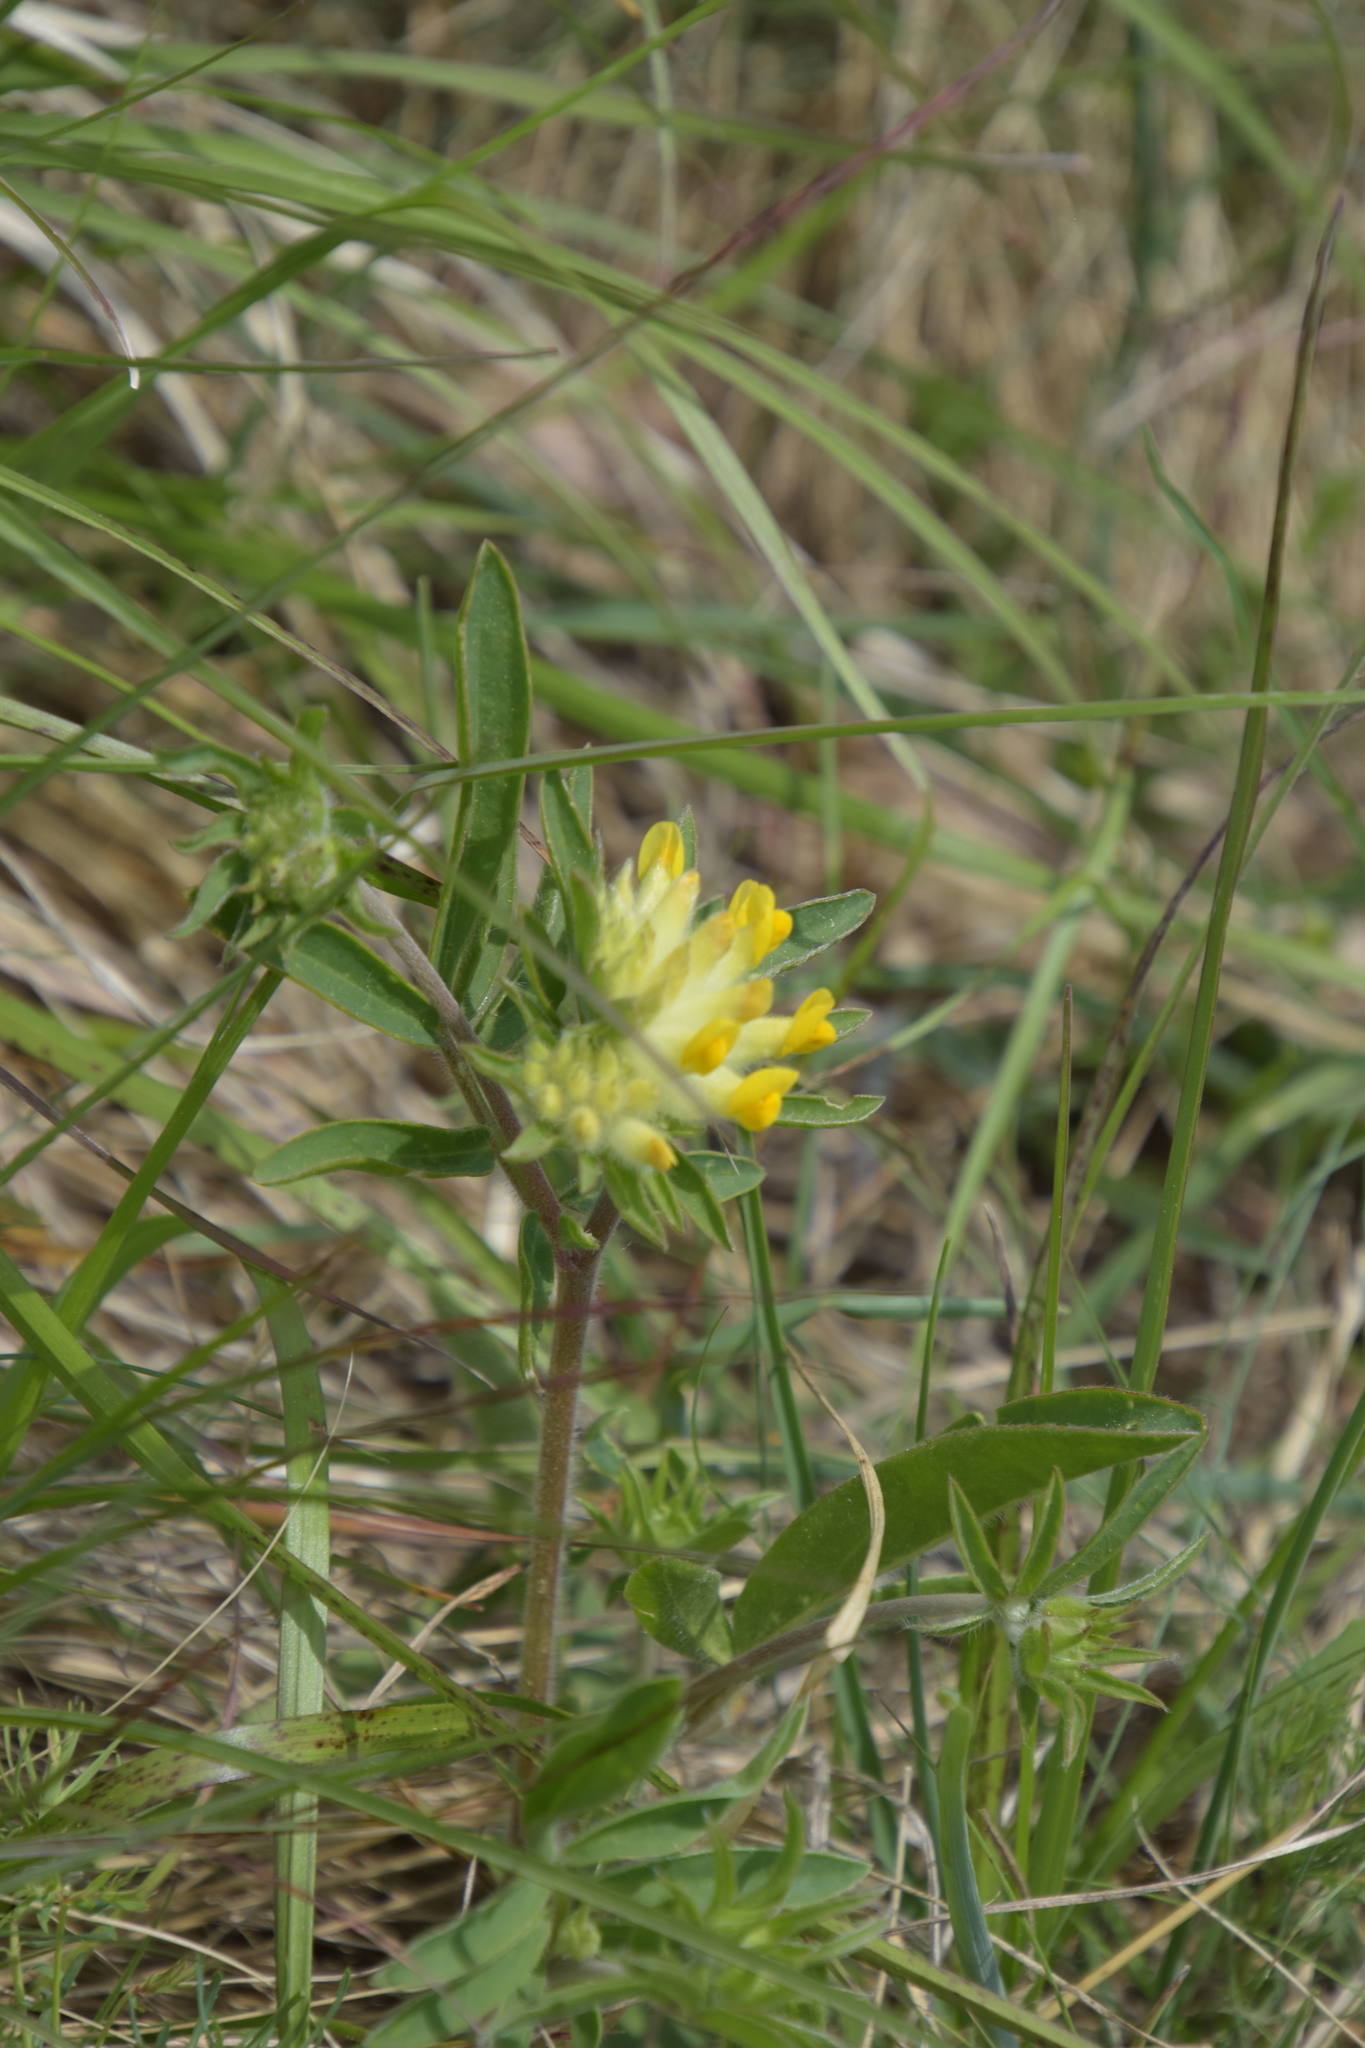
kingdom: Plantae
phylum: Tracheophyta
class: Magnoliopsida
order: Fabales
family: Fabaceae
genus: Anthyllis
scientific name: Anthyllis vulneraria
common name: Kidney vetch
